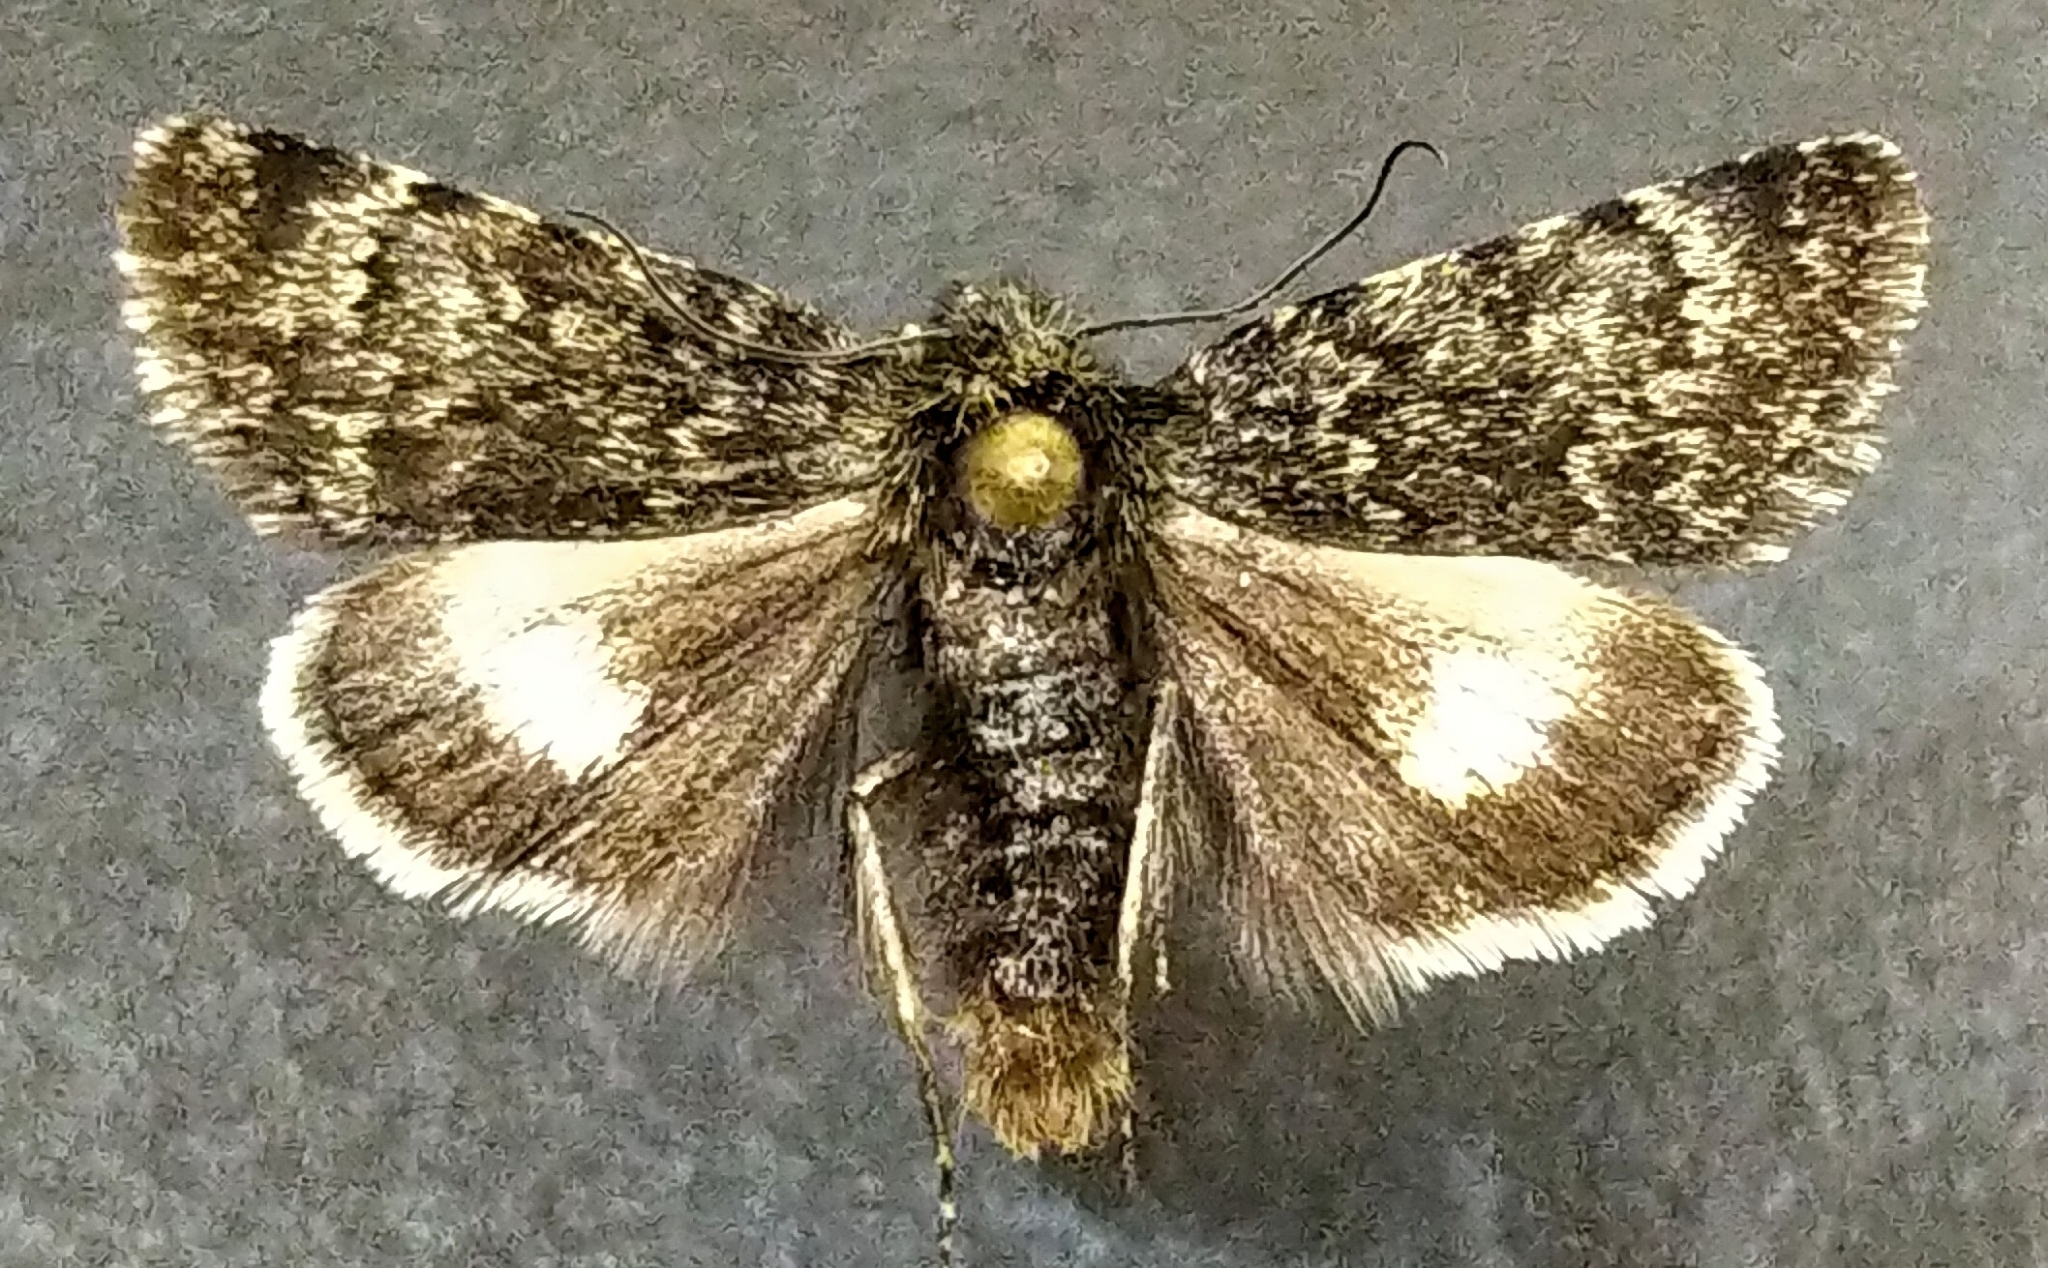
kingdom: Animalia
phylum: Arthropoda
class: Insecta
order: Lepidoptera
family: Noctuidae
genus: Sympistis
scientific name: Sympistis nigrita
